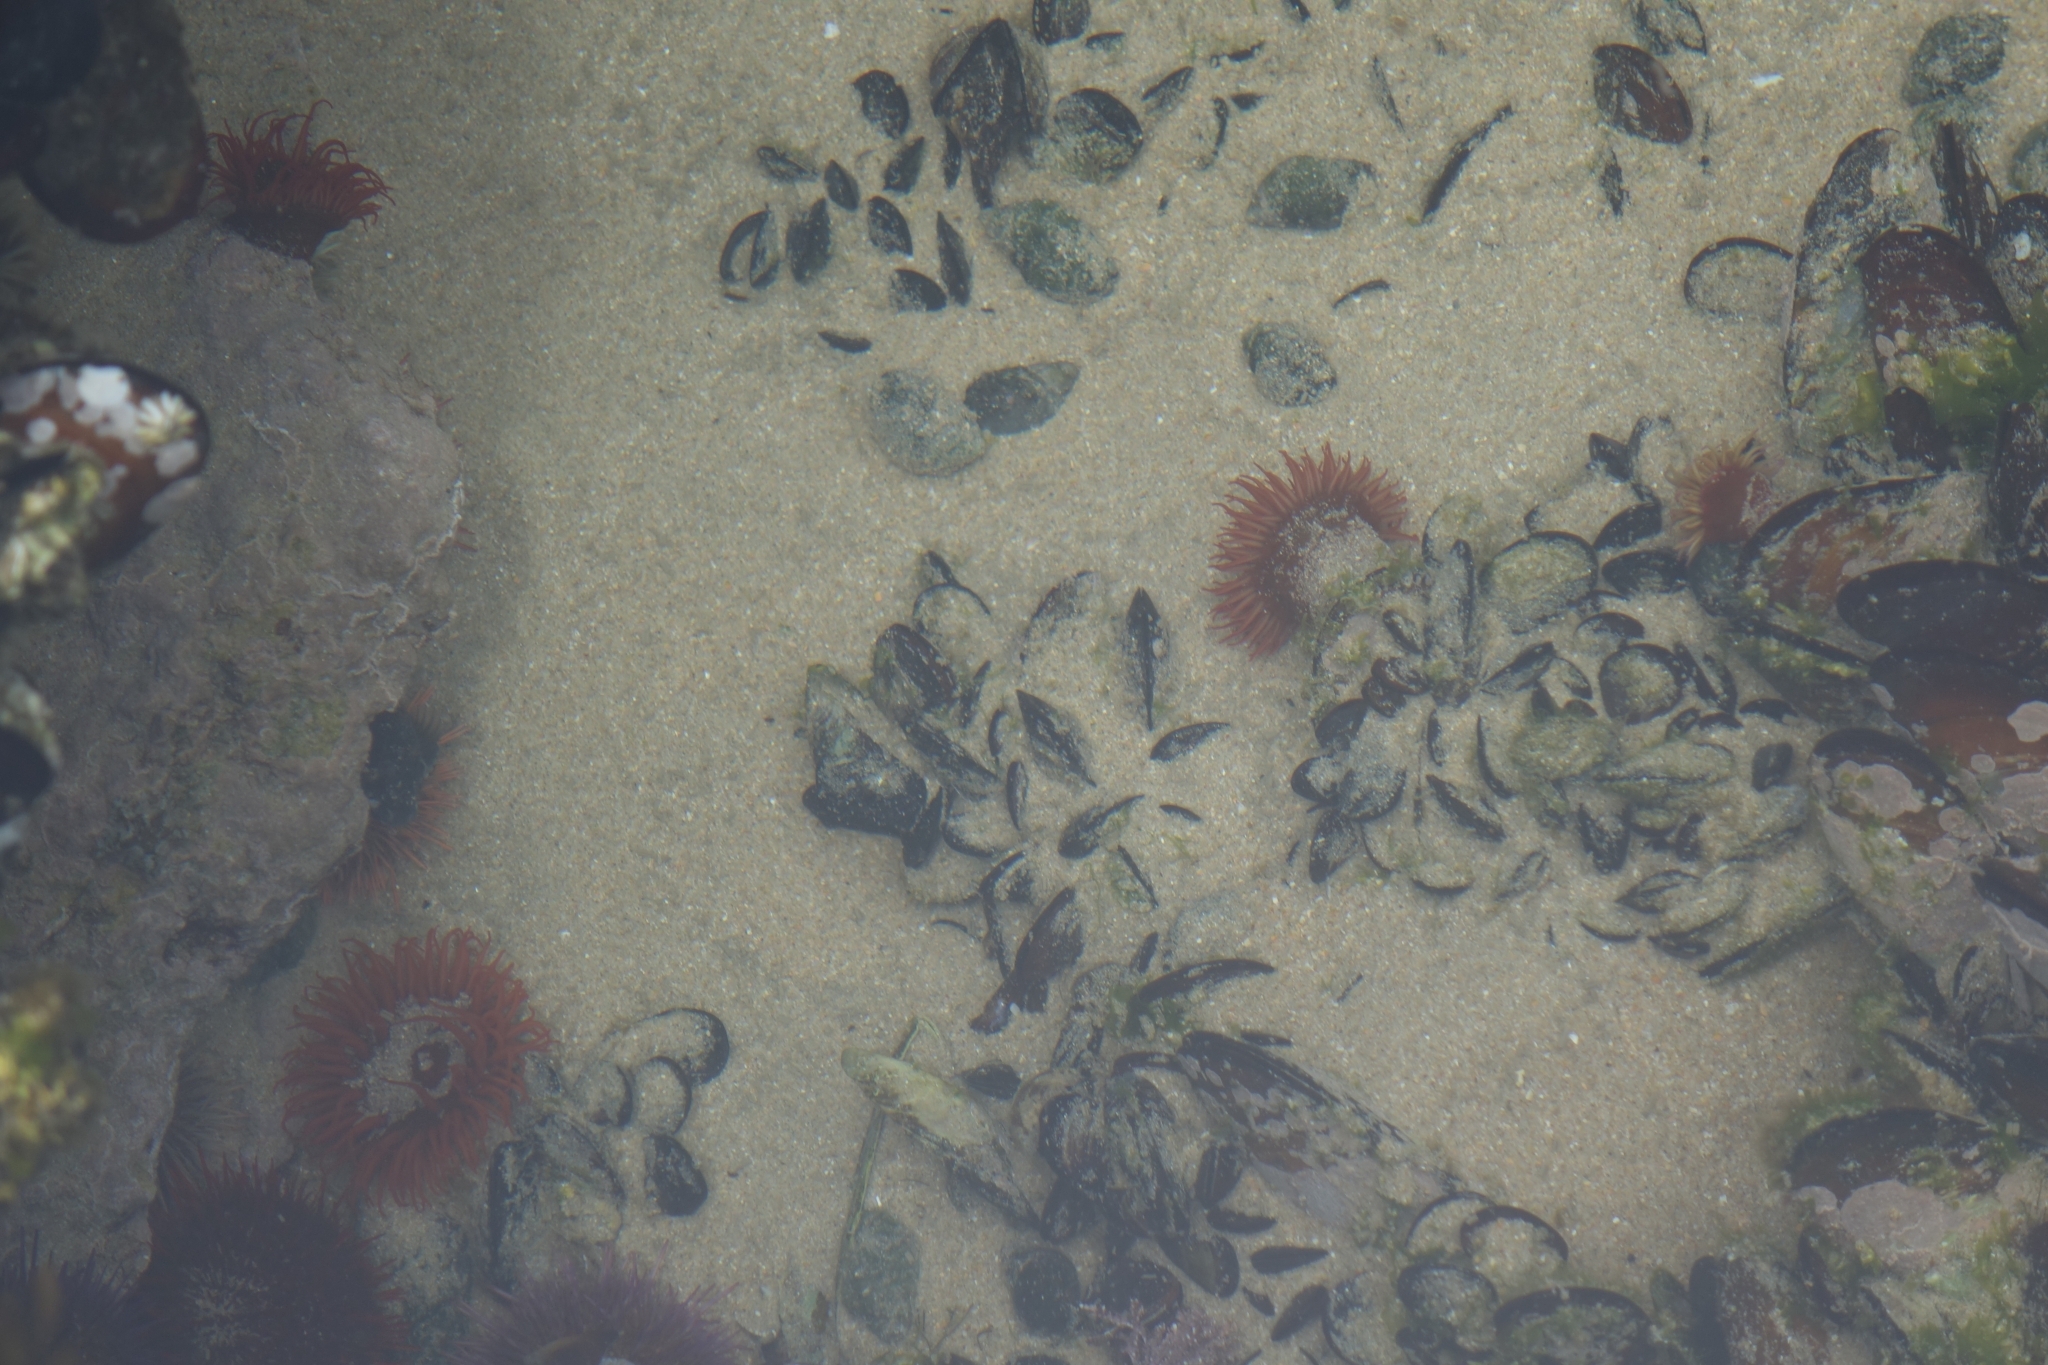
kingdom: Animalia
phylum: Cnidaria
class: Anthozoa
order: Actiniaria
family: Actiniidae
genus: Pseudactinia
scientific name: Pseudactinia flagellifera
